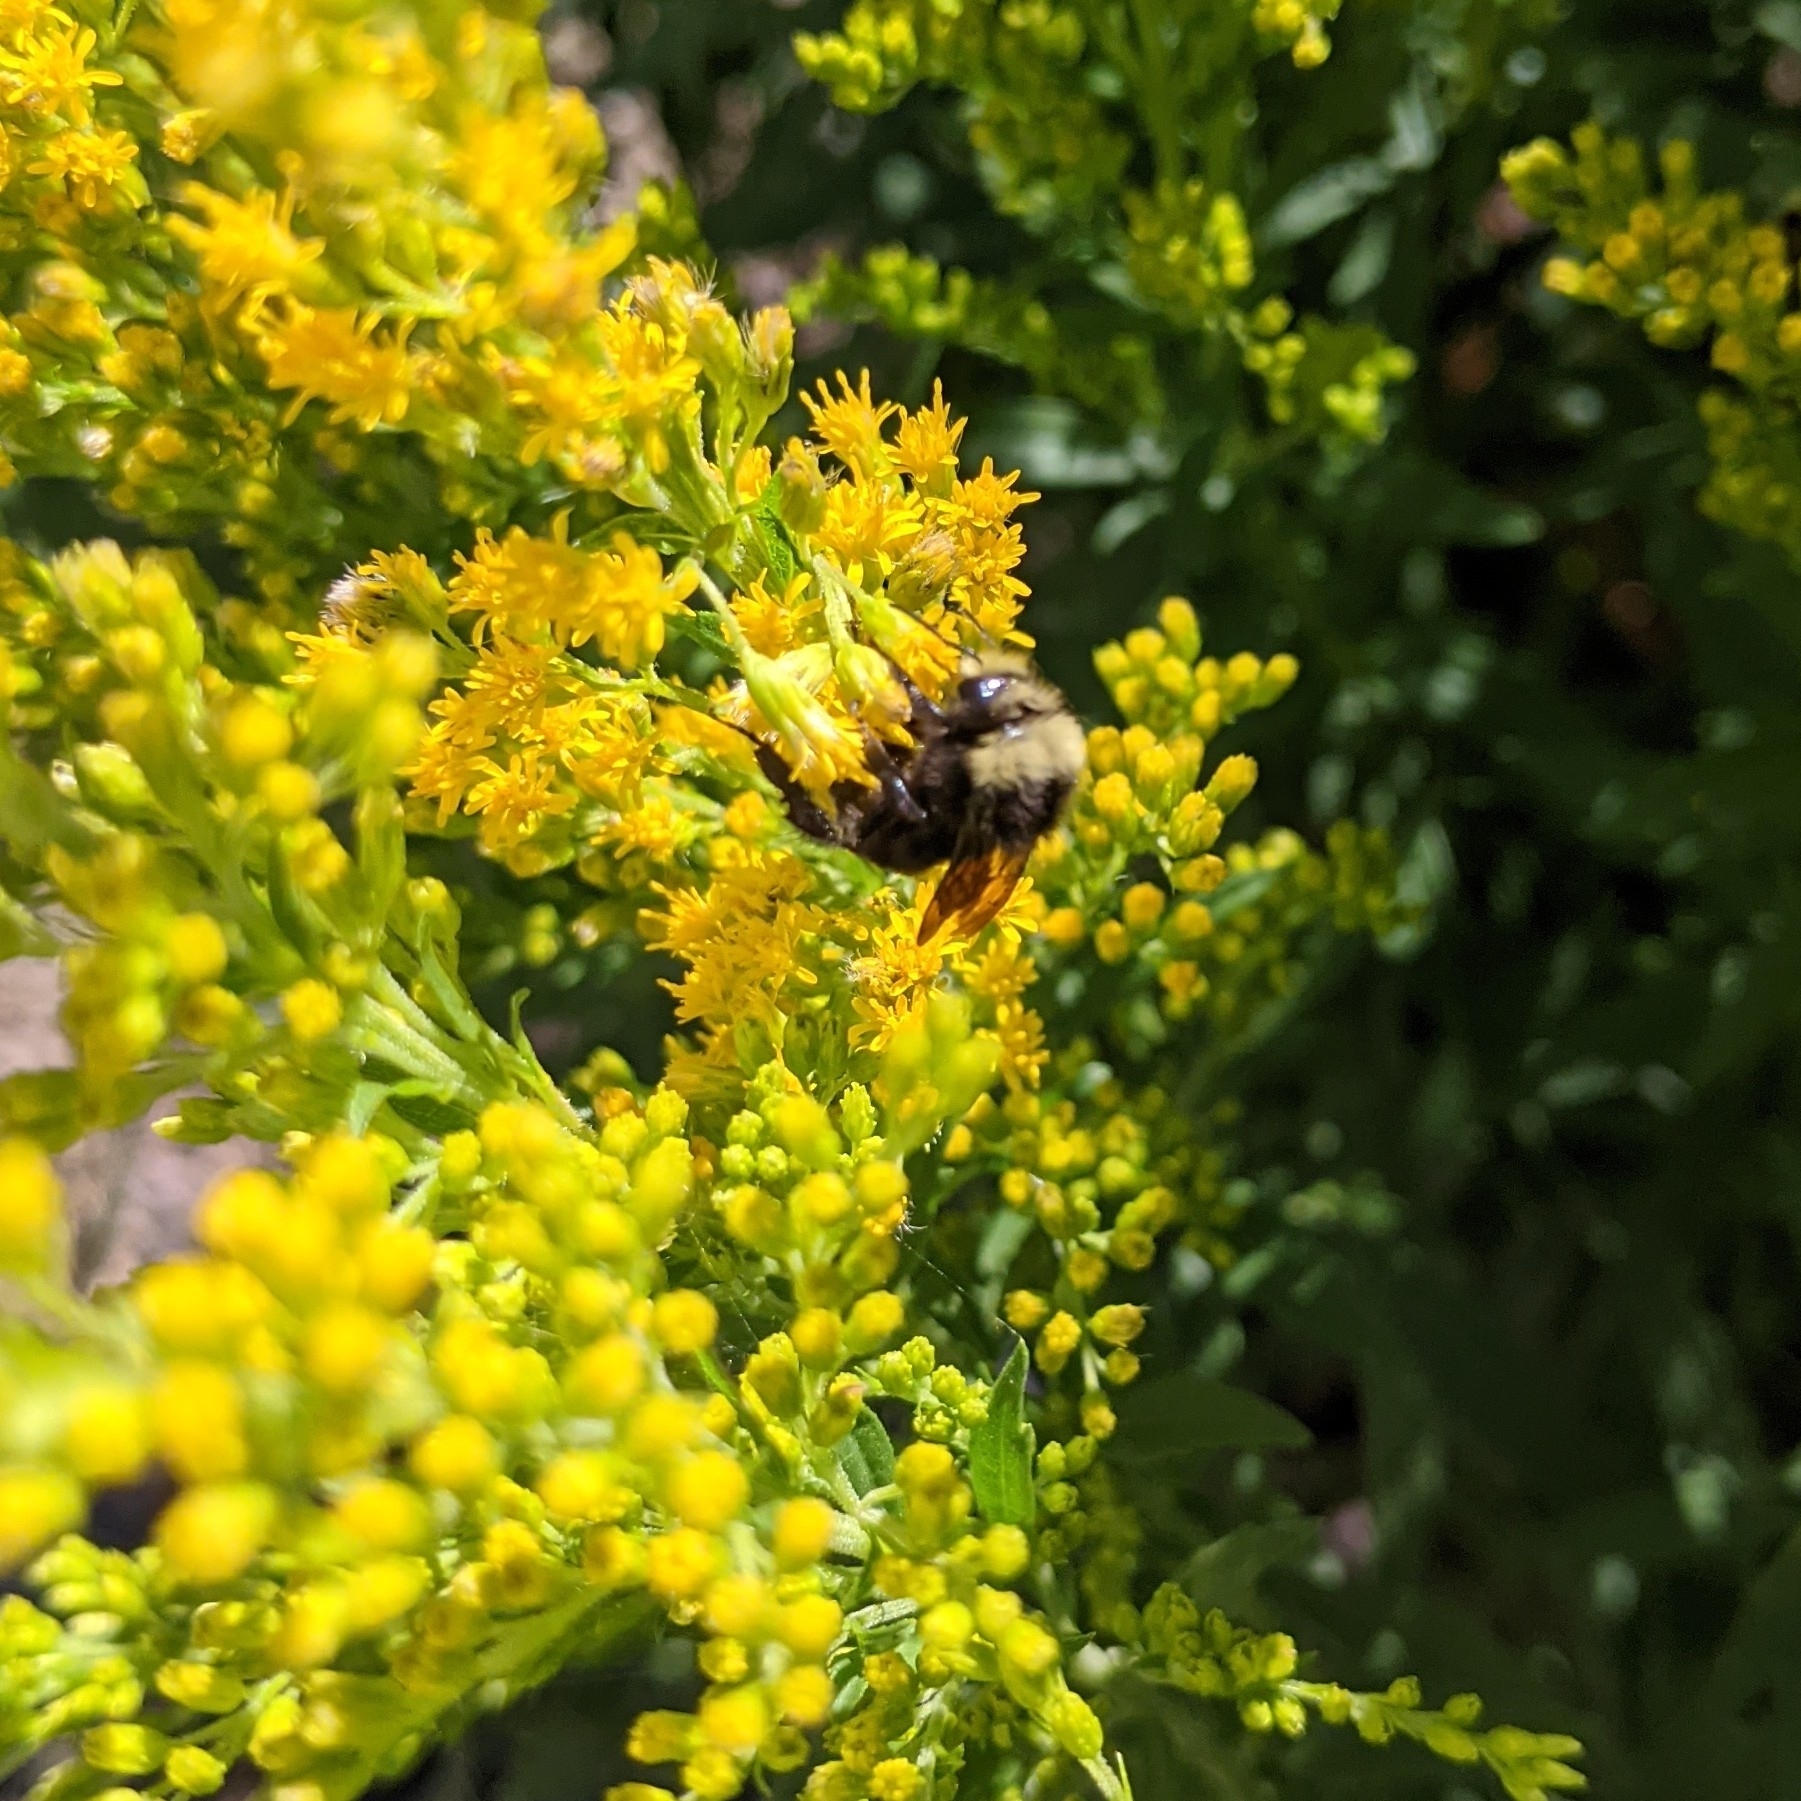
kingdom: Animalia
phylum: Arthropoda
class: Insecta
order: Hymenoptera
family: Apidae
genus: Bombus
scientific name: Bombus vosnesenskii
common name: Vosnesensky bumble bee
